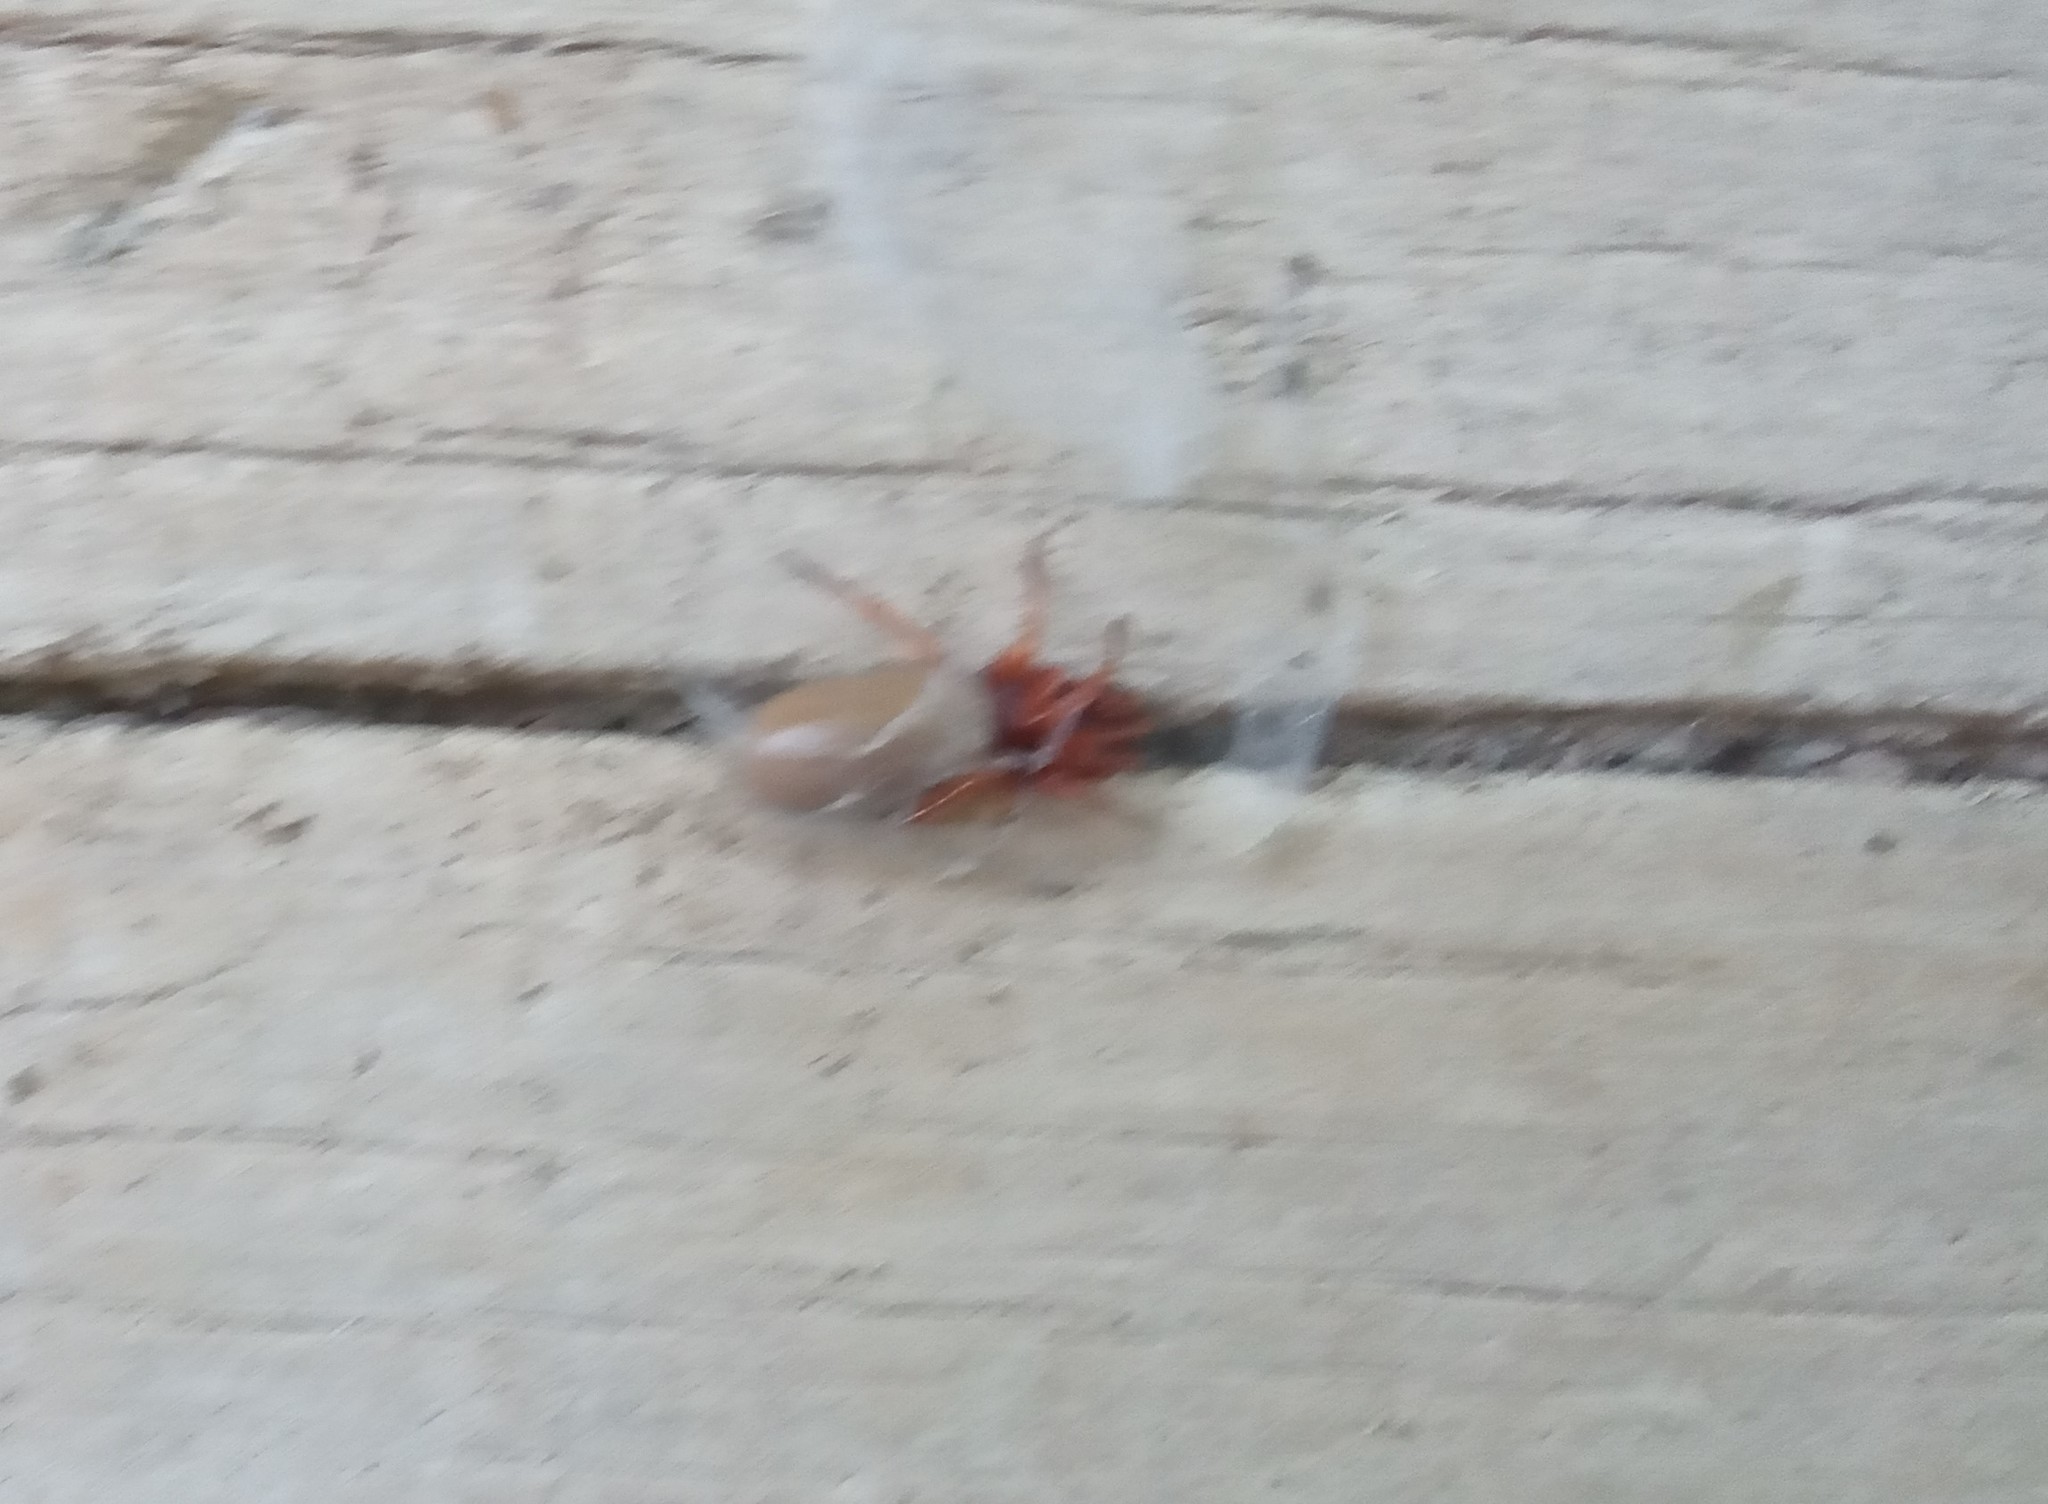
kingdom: Animalia
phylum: Arthropoda
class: Arachnida
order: Araneae
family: Dysderidae
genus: Dysdera
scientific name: Dysdera crocata
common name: Woodlouse spider
